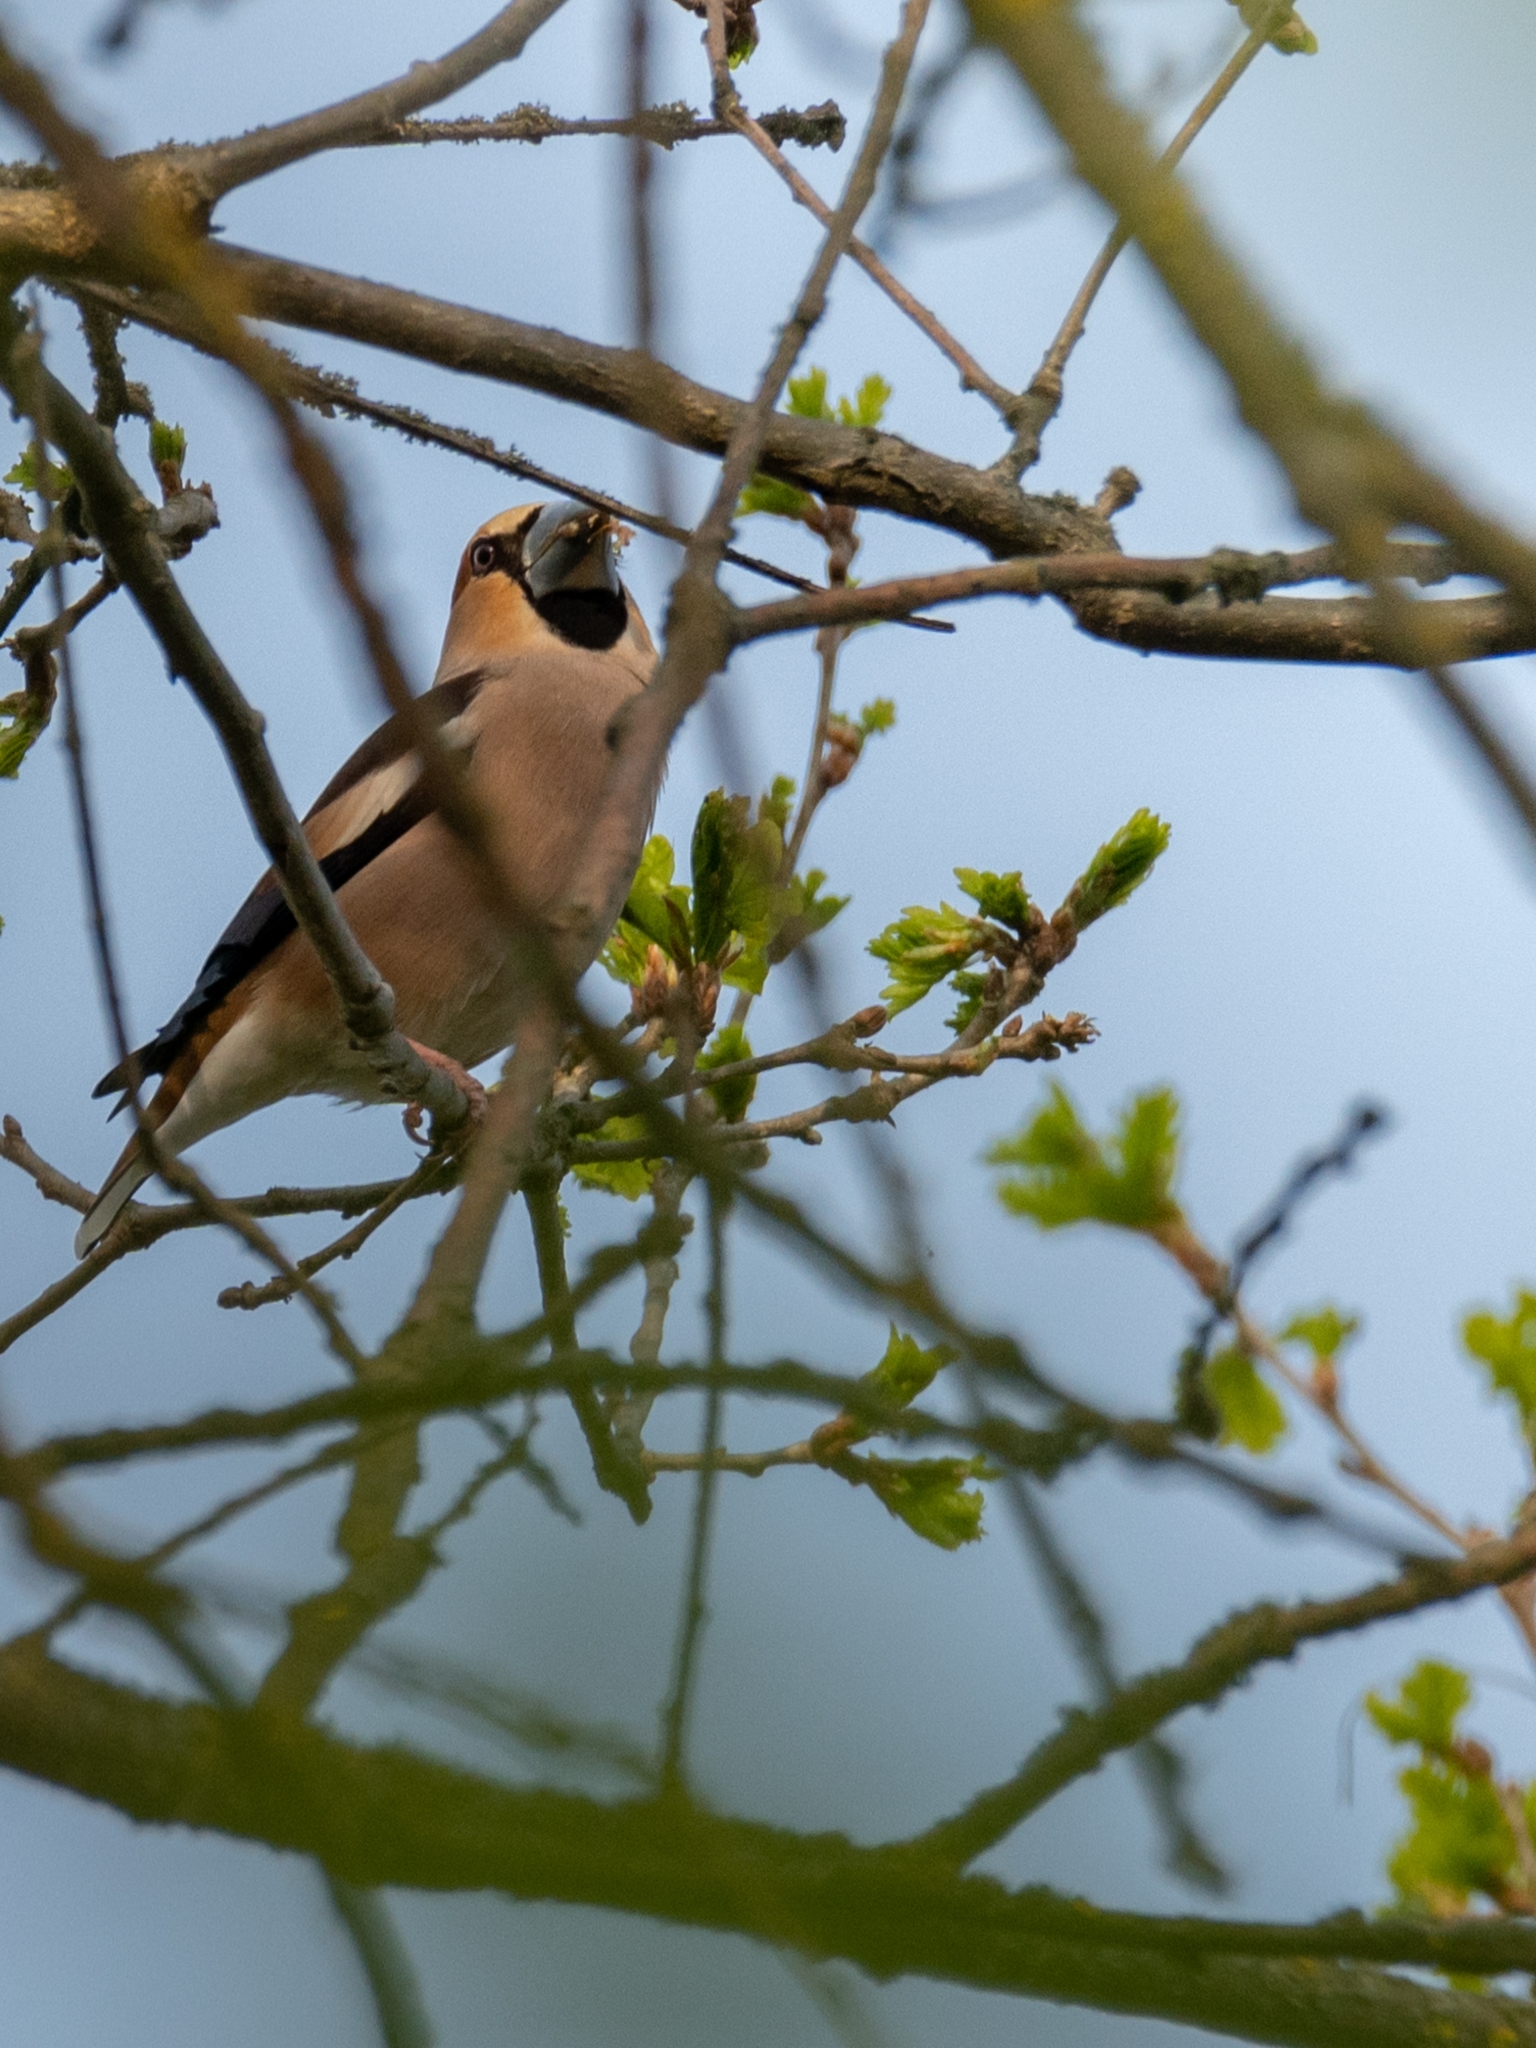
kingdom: Animalia
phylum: Chordata
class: Aves
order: Passeriformes
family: Fringillidae
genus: Coccothraustes
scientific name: Coccothraustes coccothraustes
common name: Hawfinch
